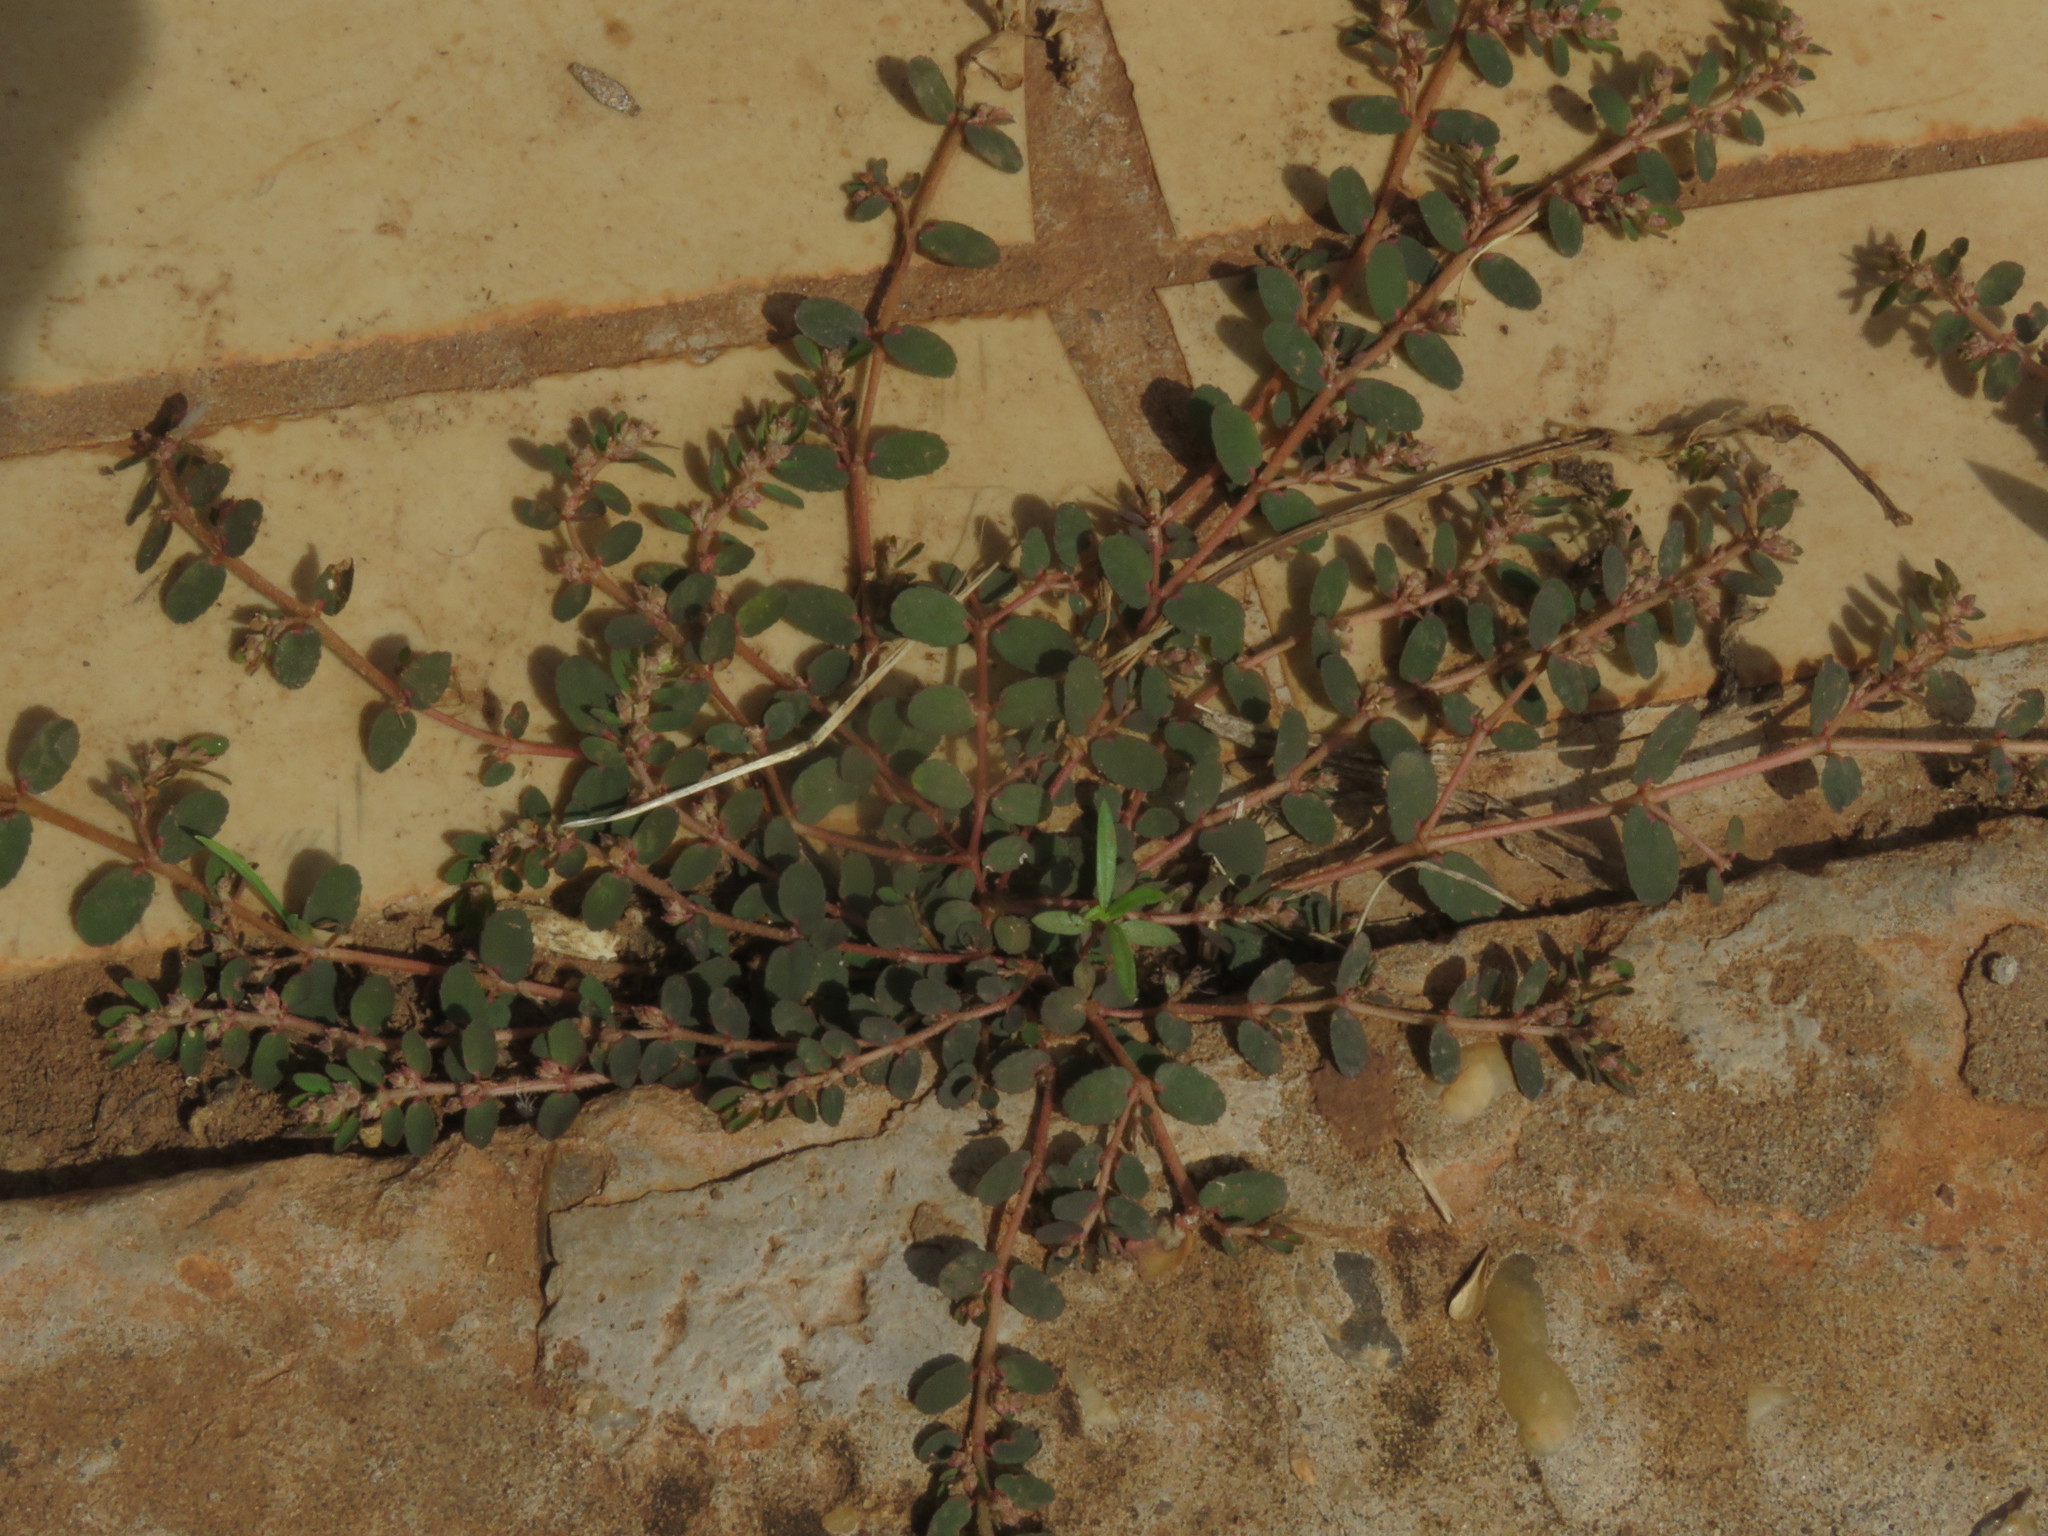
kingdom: Plantae
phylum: Tracheophyta
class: Magnoliopsida
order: Malpighiales
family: Euphorbiaceae
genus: Euphorbia
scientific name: Euphorbia thymifolia
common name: Gulf sandmat
